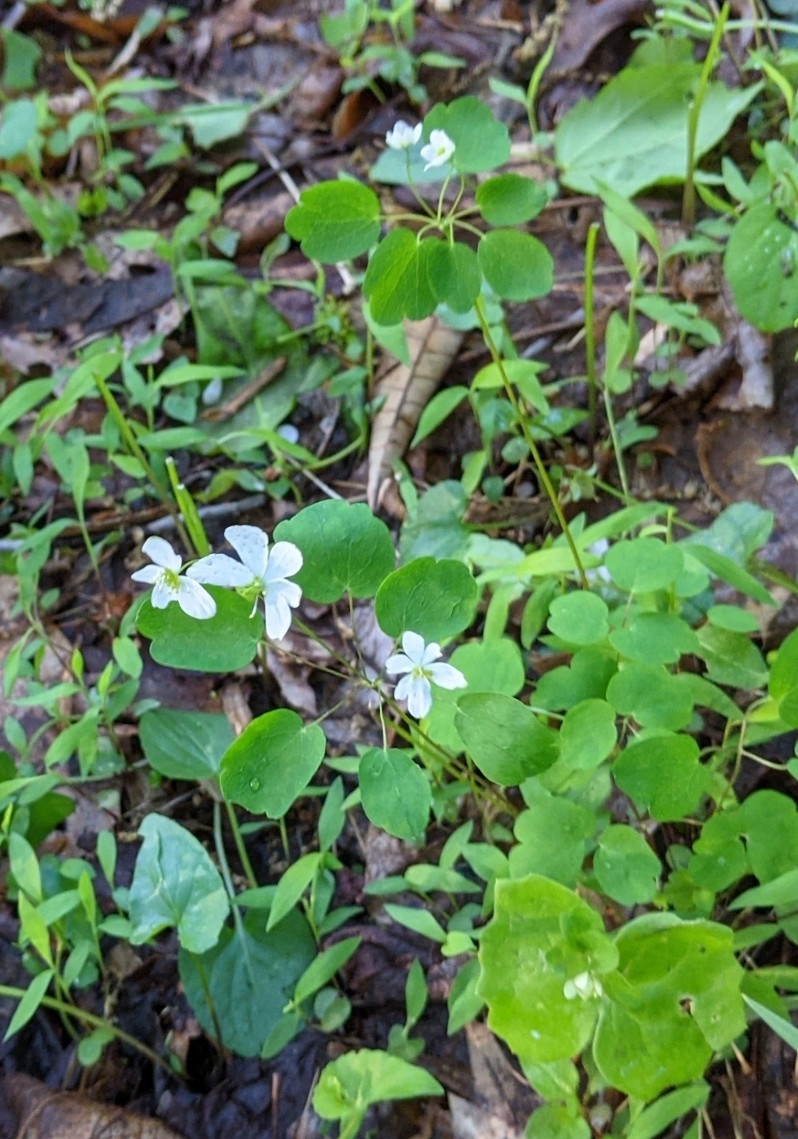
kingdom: Plantae
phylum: Tracheophyta
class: Magnoliopsida
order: Ranunculales
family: Ranunculaceae
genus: Thalictrum
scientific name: Thalictrum thalictroides
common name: Rue-anemone
